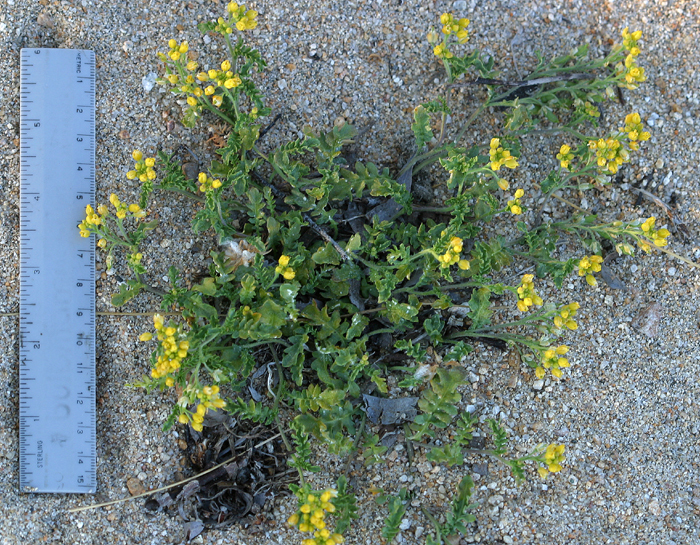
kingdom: Plantae
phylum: Tracheophyta
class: Magnoliopsida
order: Brassicales
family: Brassicaceae
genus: Rorippa
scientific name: Rorippa subumbellata
